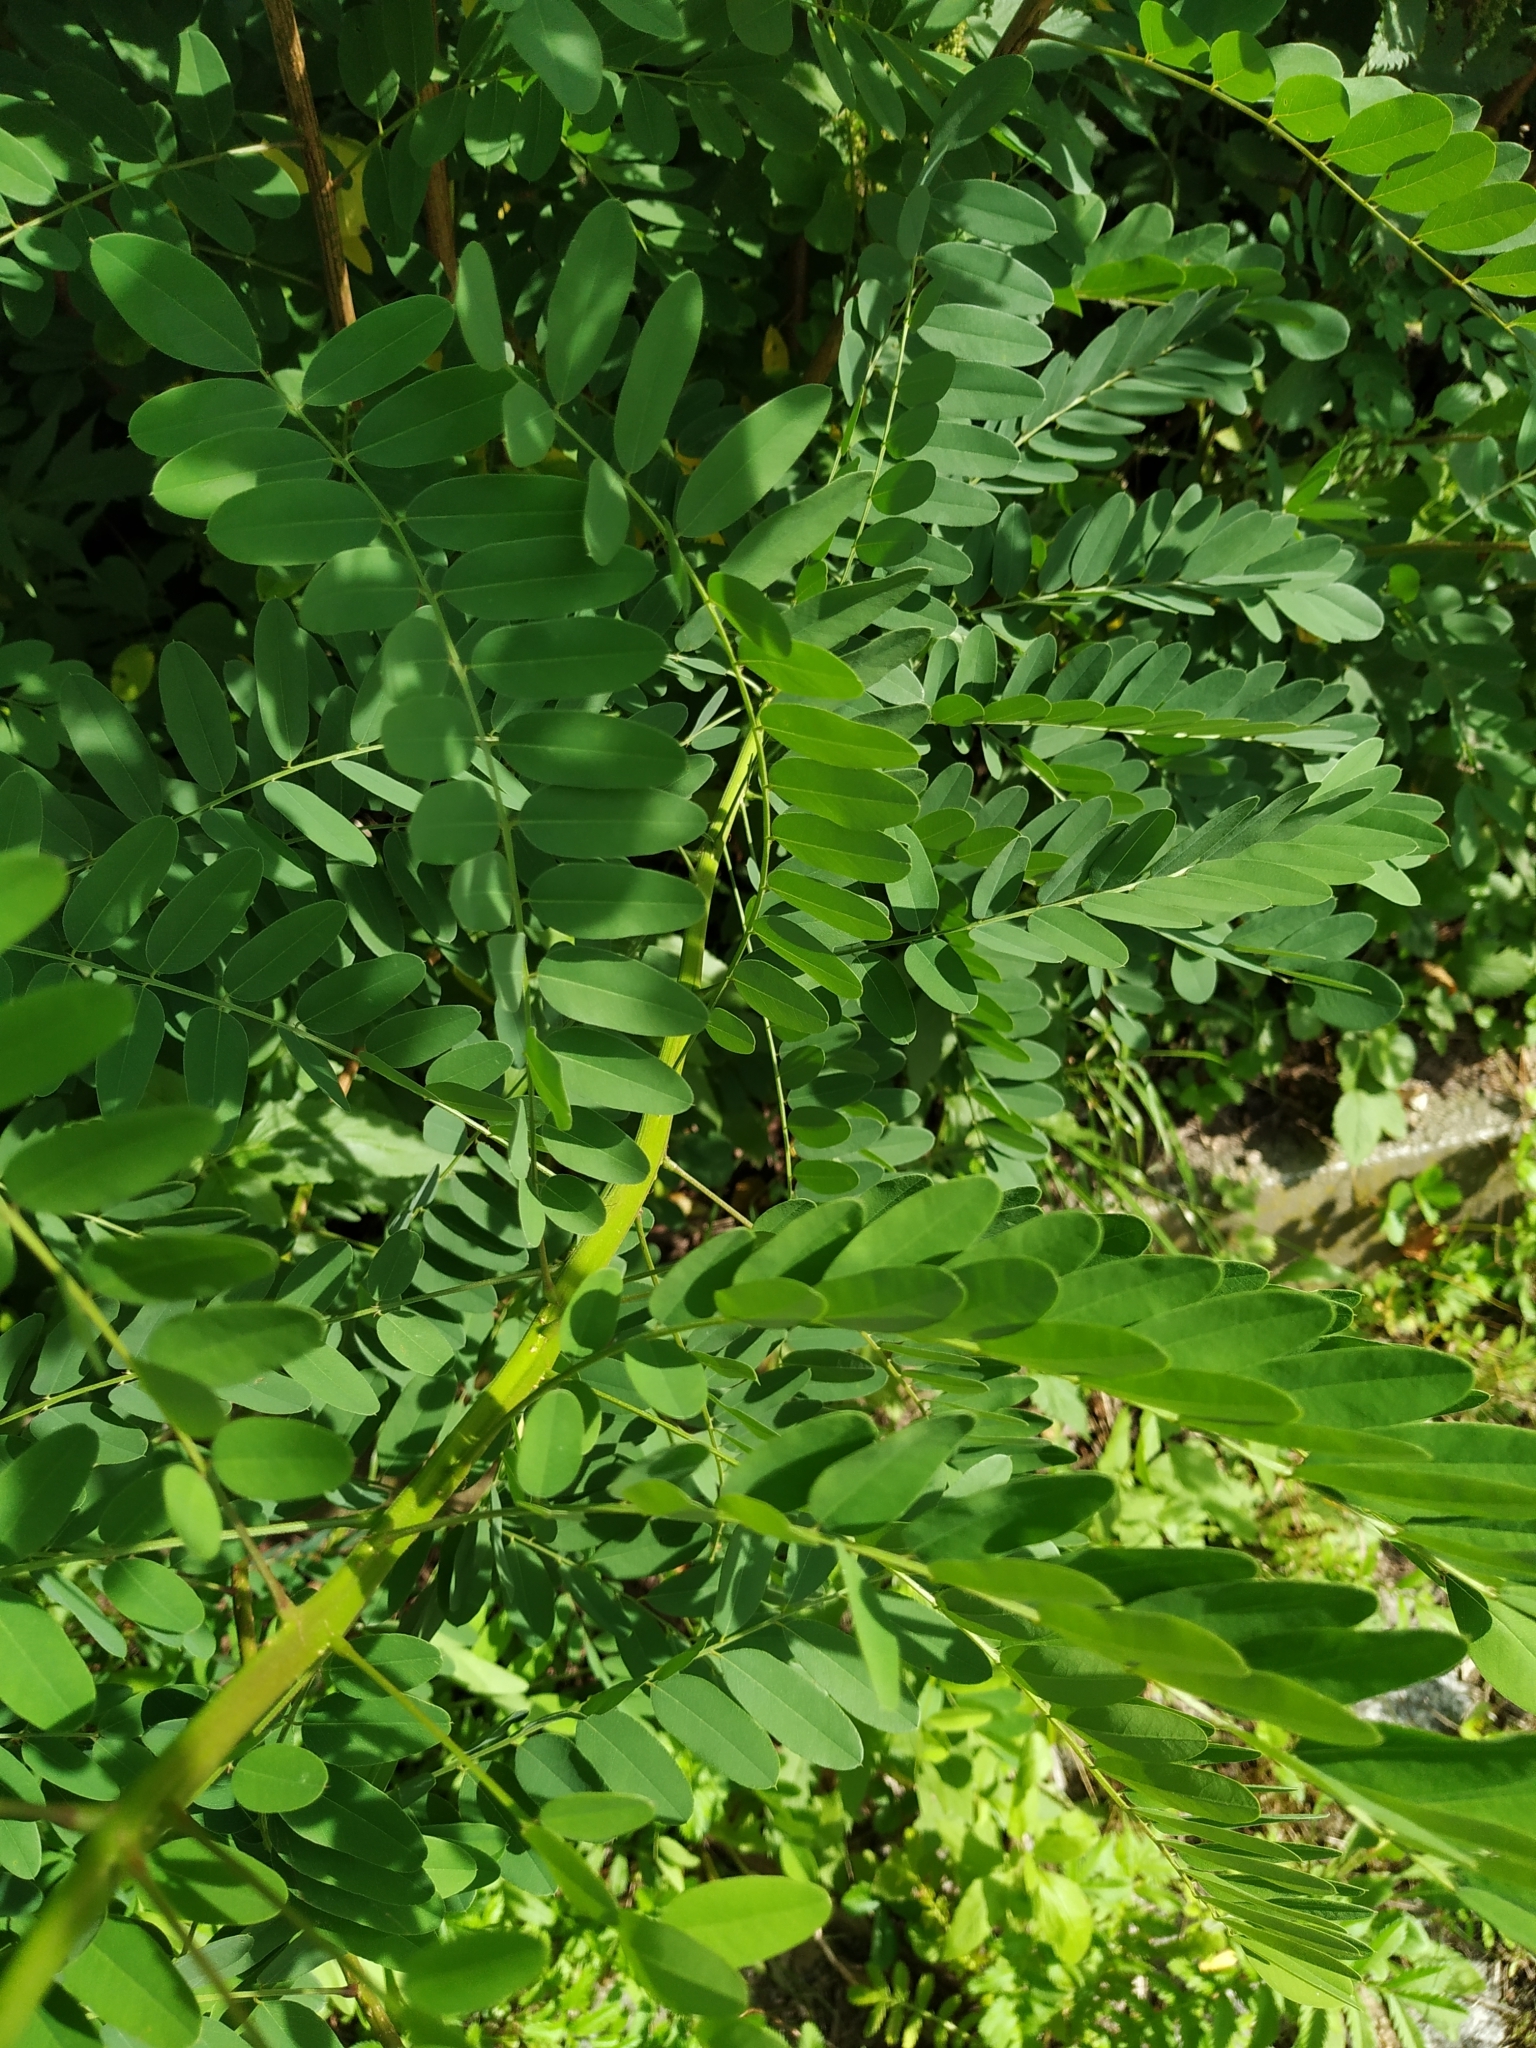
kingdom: Plantae
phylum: Tracheophyta
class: Magnoliopsida
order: Fabales
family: Fabaceae
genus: Amorpha
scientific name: Amorpha fruticosa
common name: False indigo
